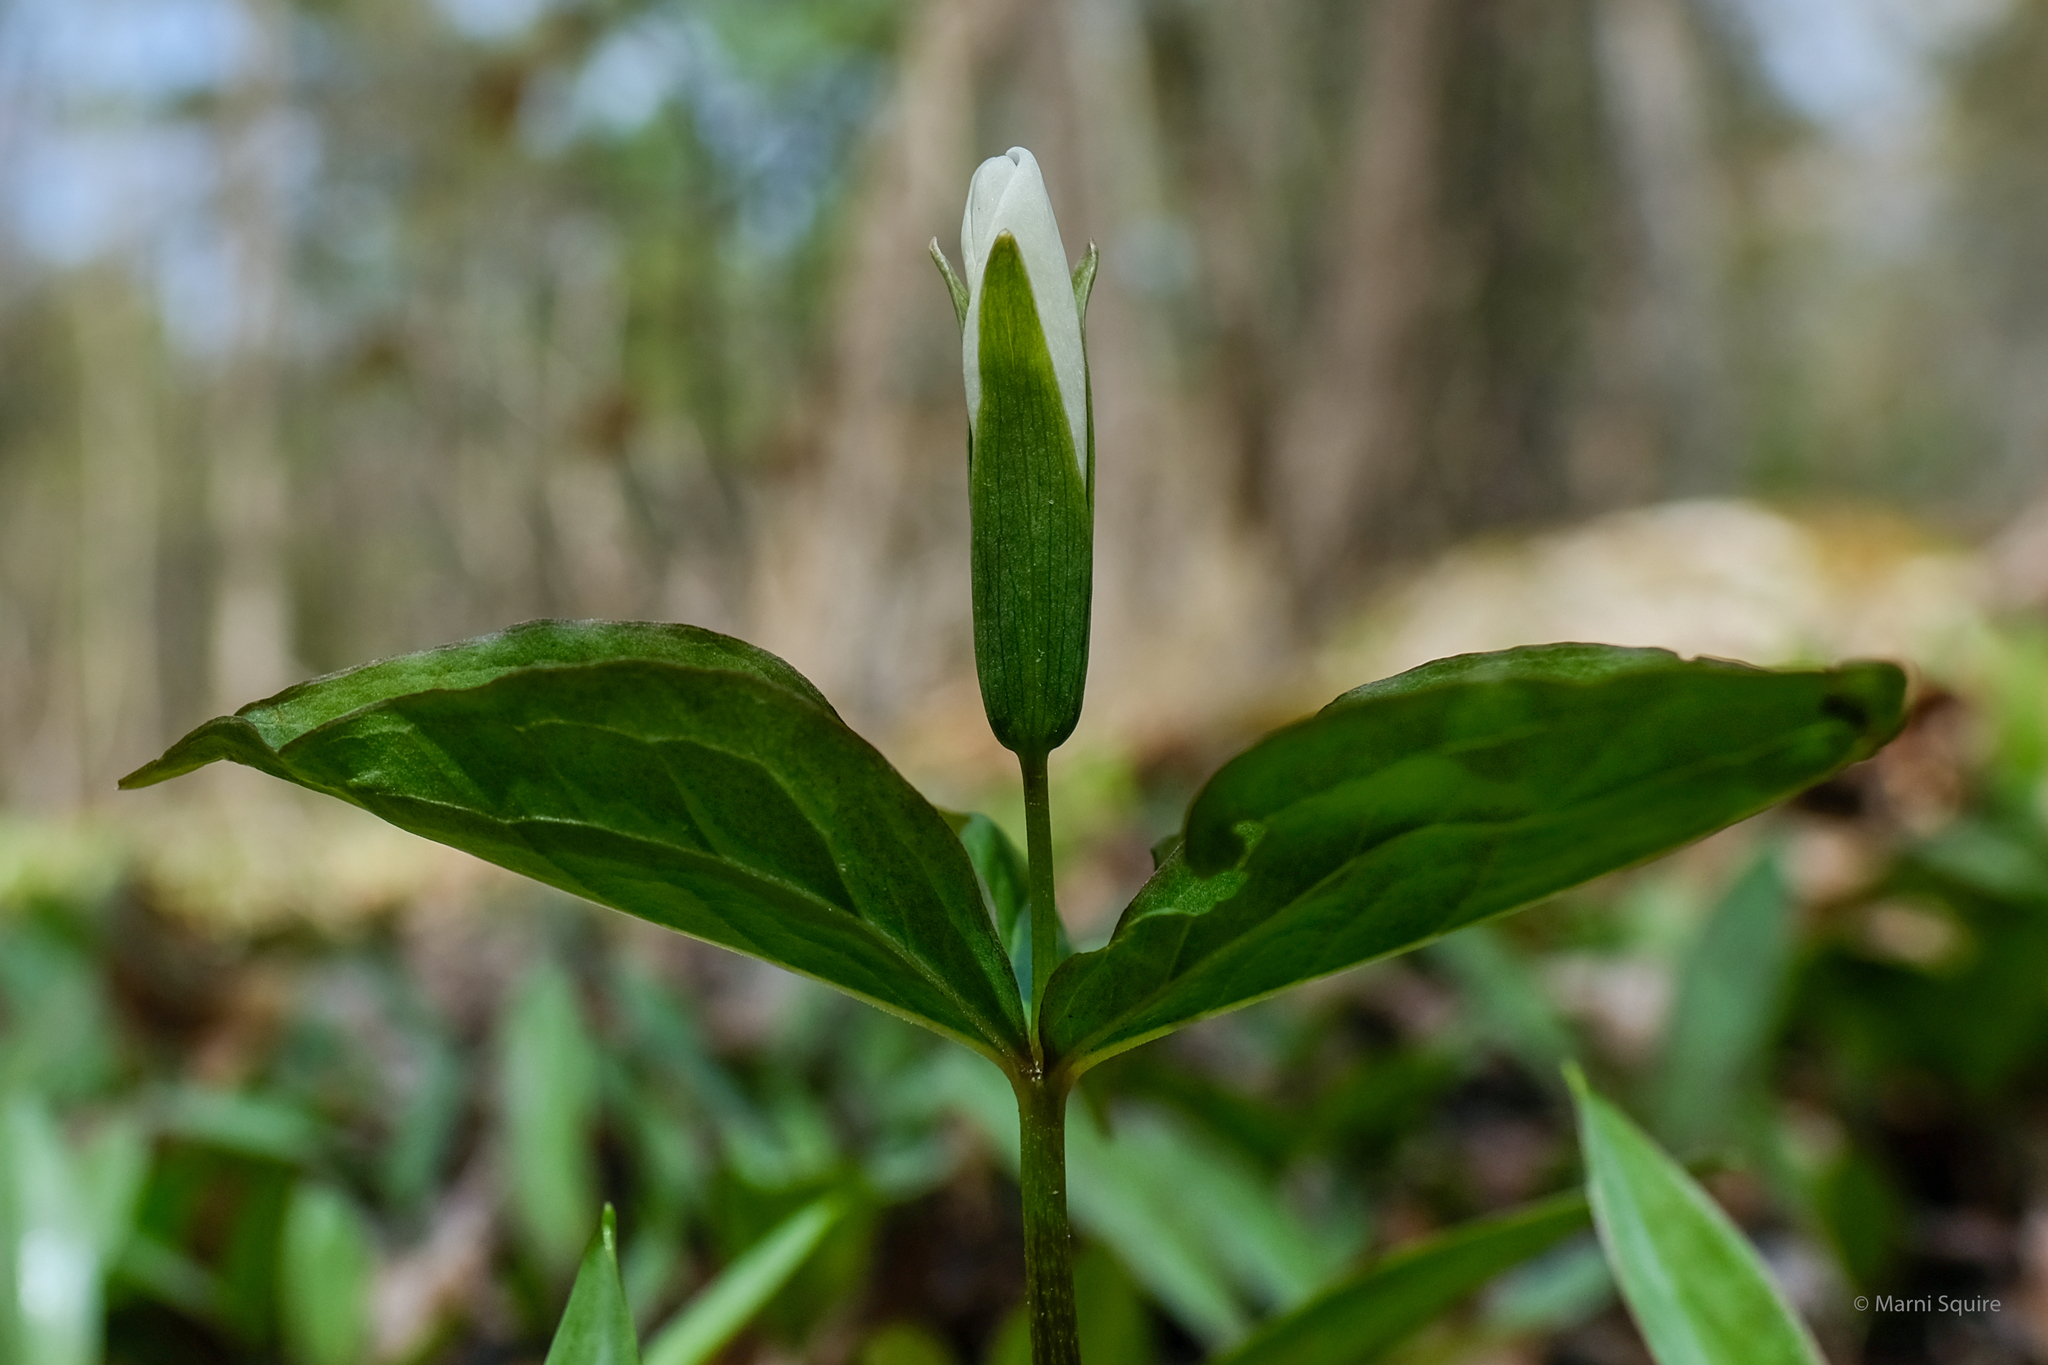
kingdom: Plantae
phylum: Tracheophyta
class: Liliopsida
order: Liliales
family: Melanthiaceae
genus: Trillium
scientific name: Trillium grandiflorum
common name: Great white trillium
